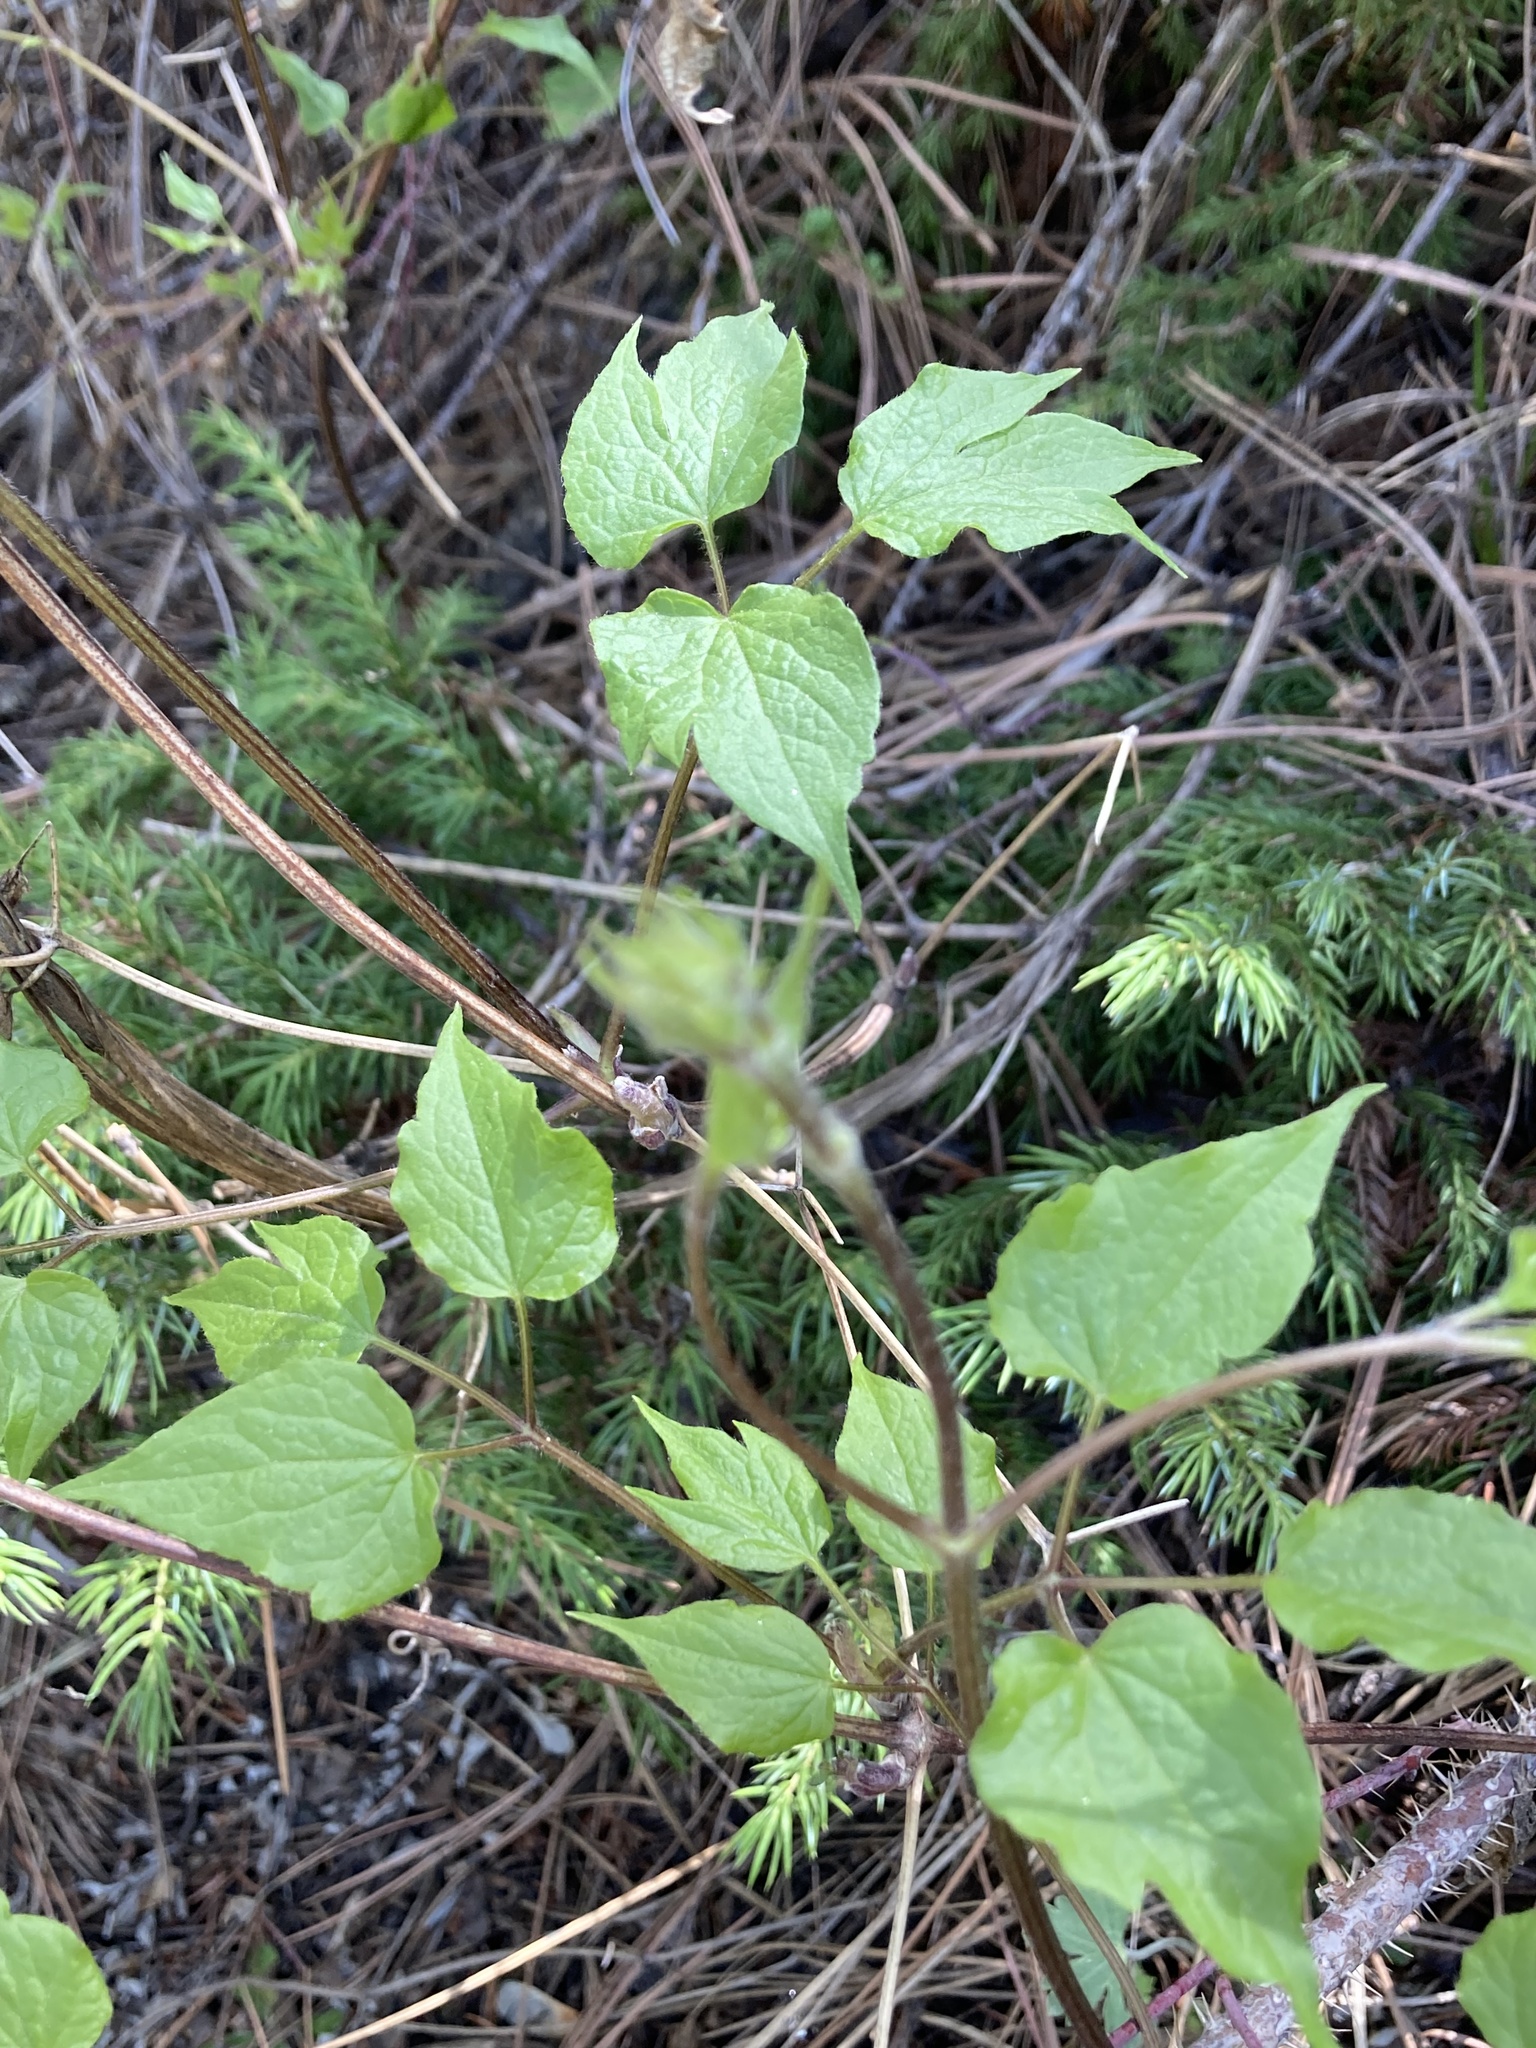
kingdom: Plantae
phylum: Tracheophyta
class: Magnoliopsida
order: Ranunculales
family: Ranunculaceae
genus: Clematis
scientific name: Clematis occidentalis
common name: Purple clematis
